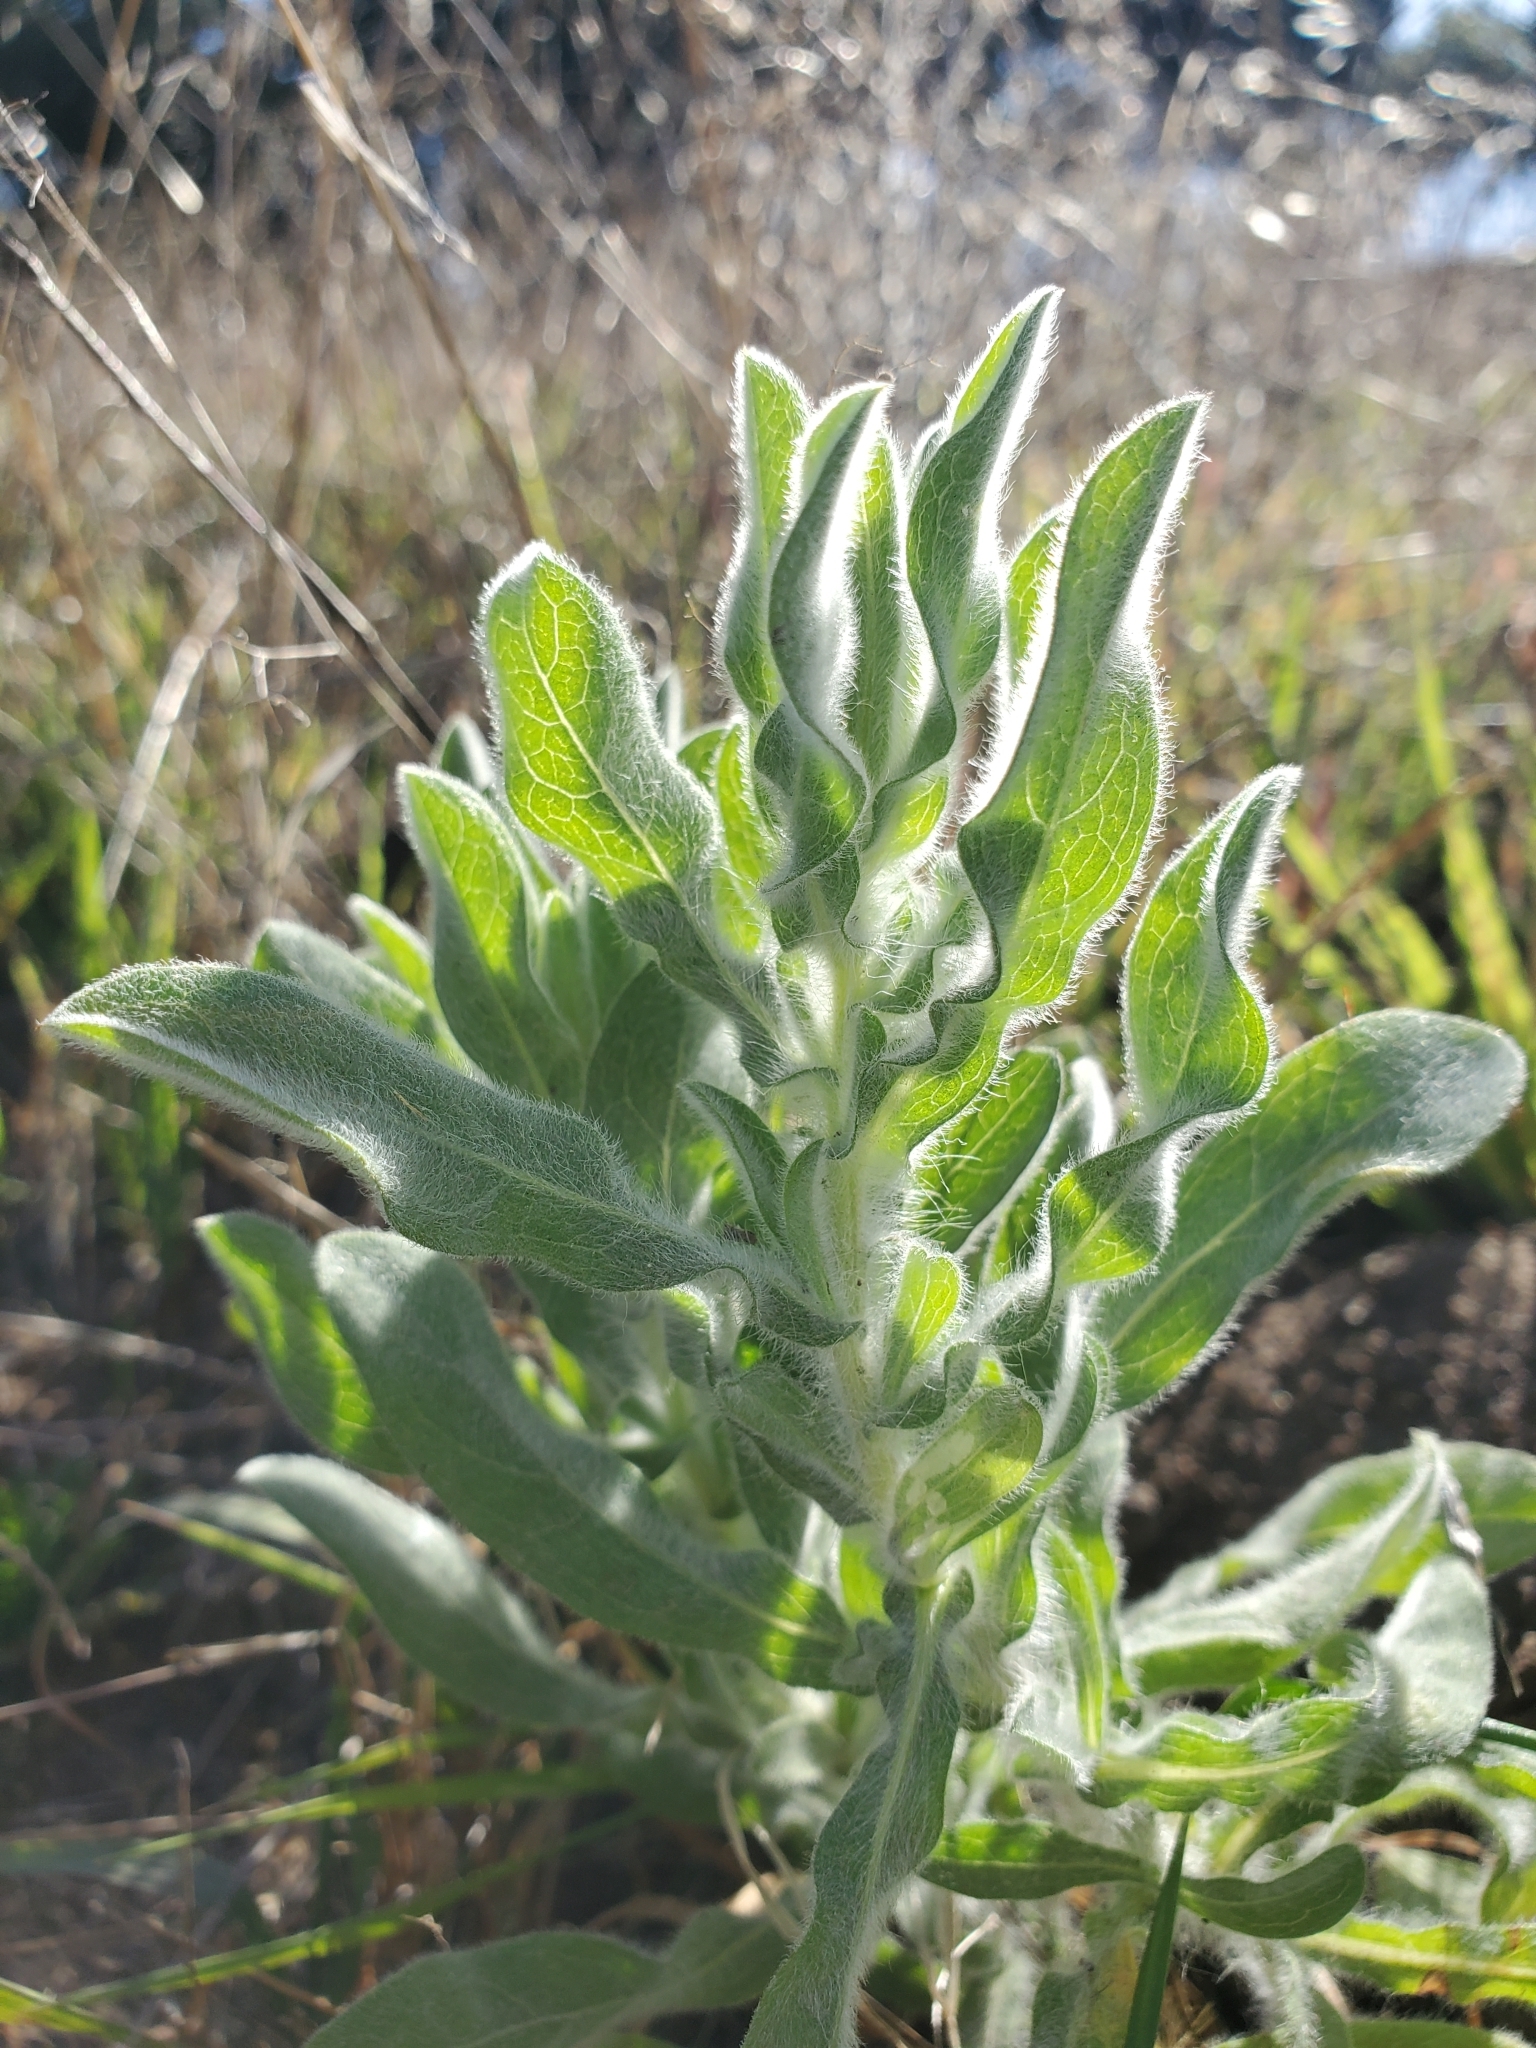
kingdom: Plantae
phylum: Tracheophyta
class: Magnoliopsida
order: Asterales
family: Asteraceae
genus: Heterotheca
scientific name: Heterotheca villosissima
